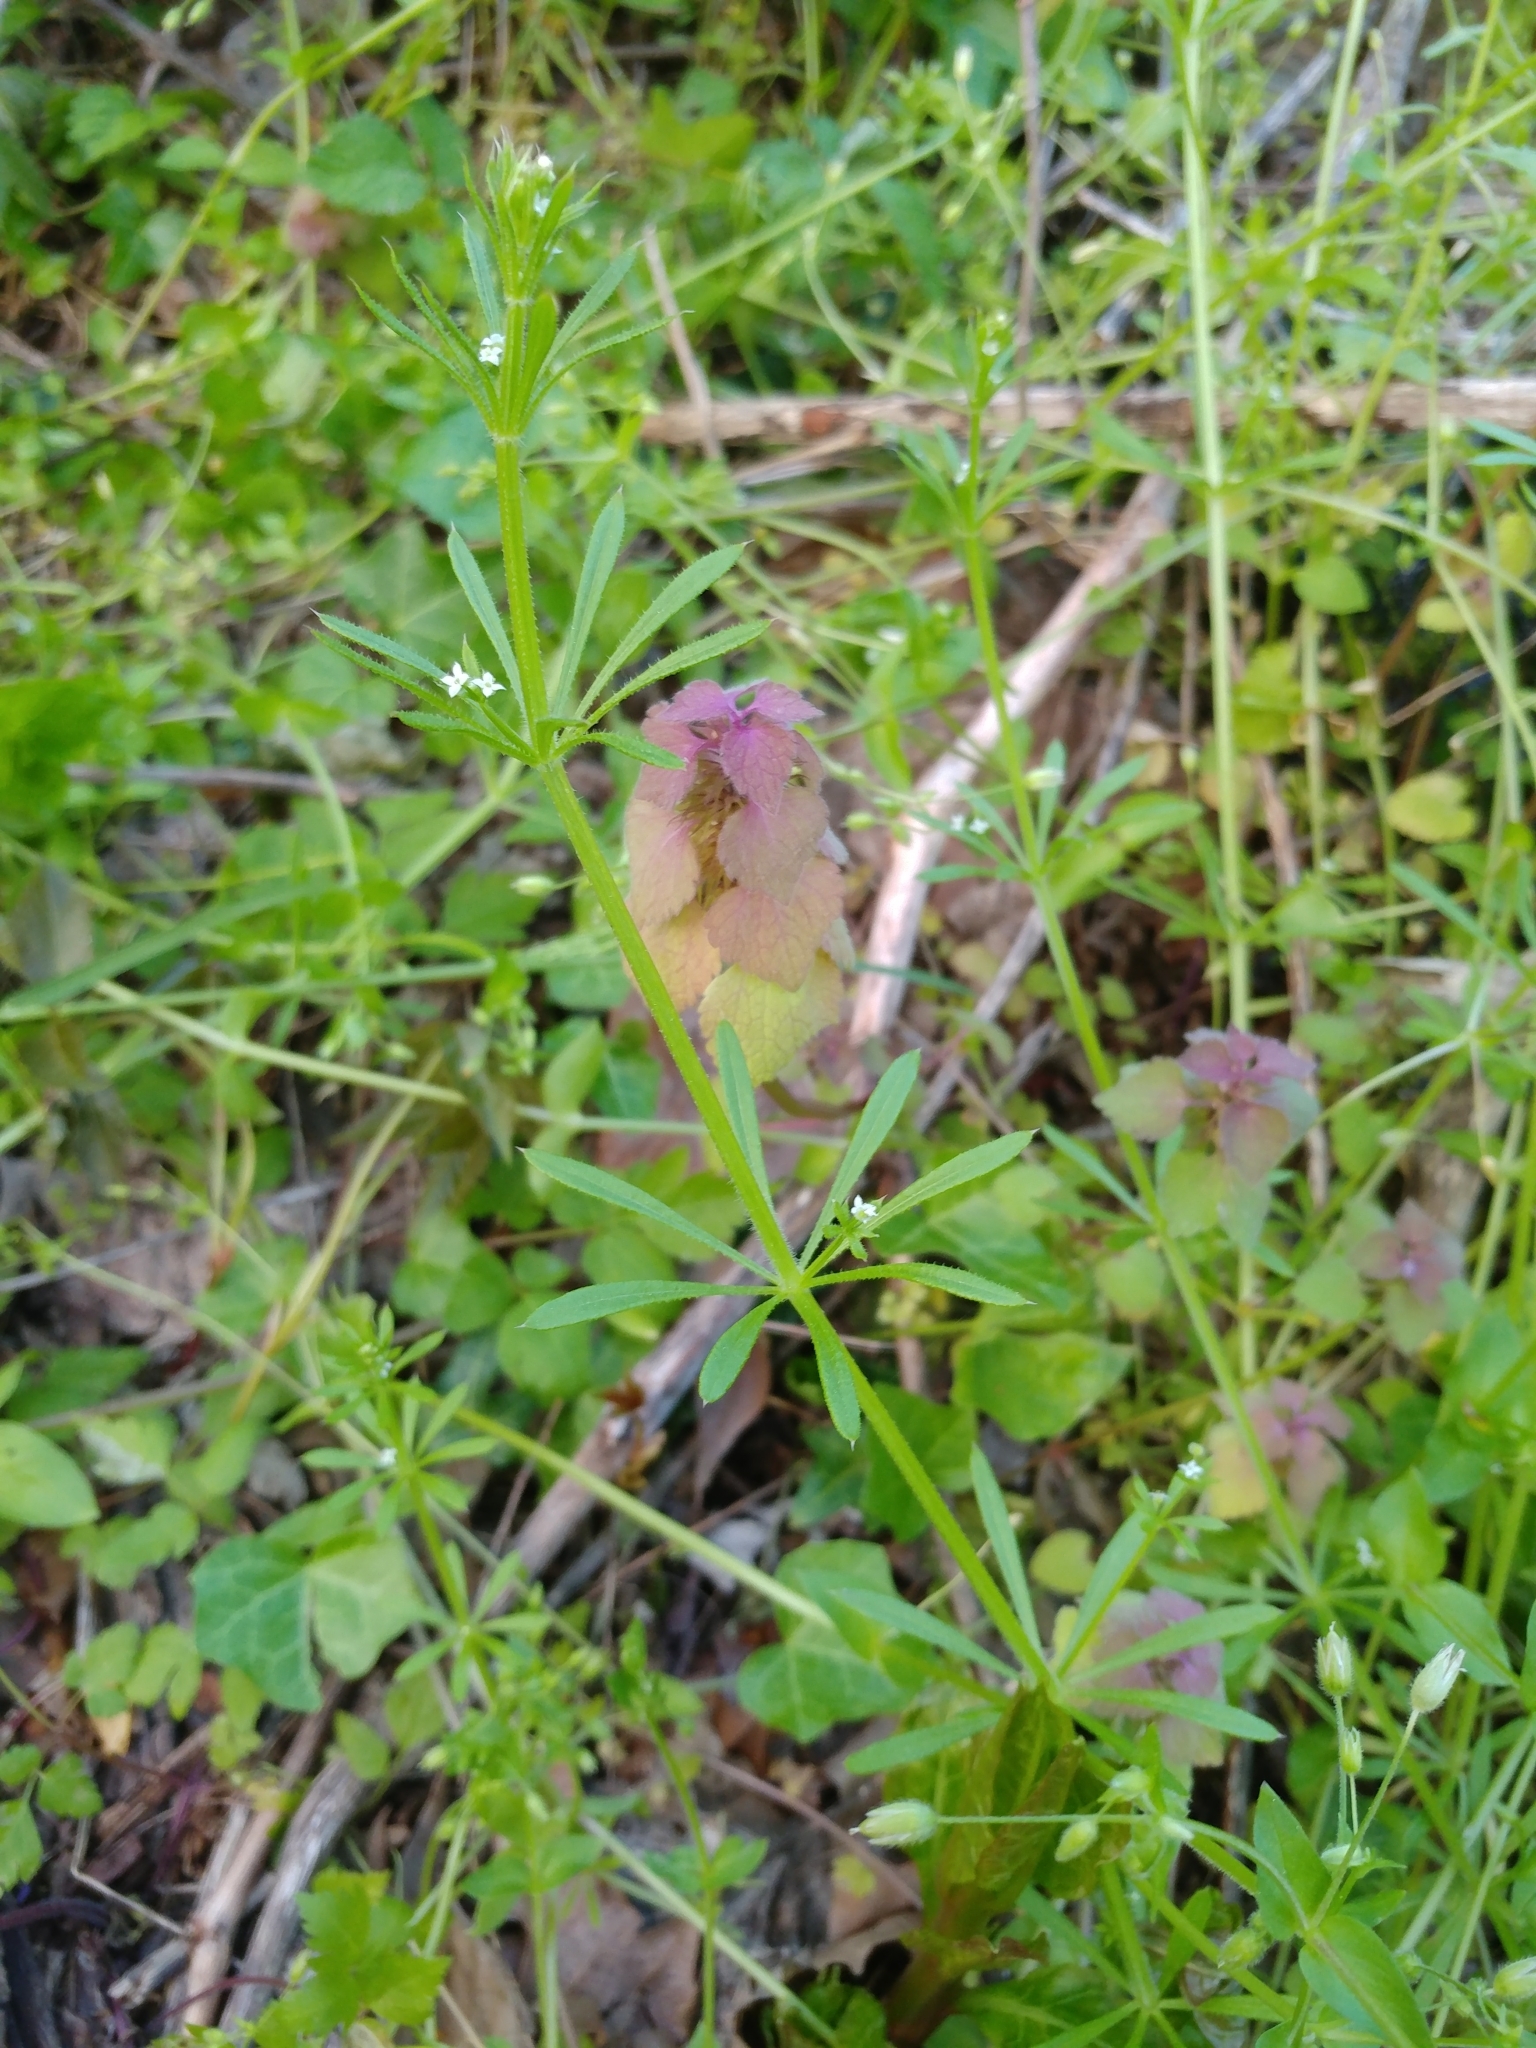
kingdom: Plantae
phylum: Tracheophyta
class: Magnoliopsida
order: Gentianales
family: Rubiaceae
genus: Galium
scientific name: Galium aparine
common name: Cleavers
